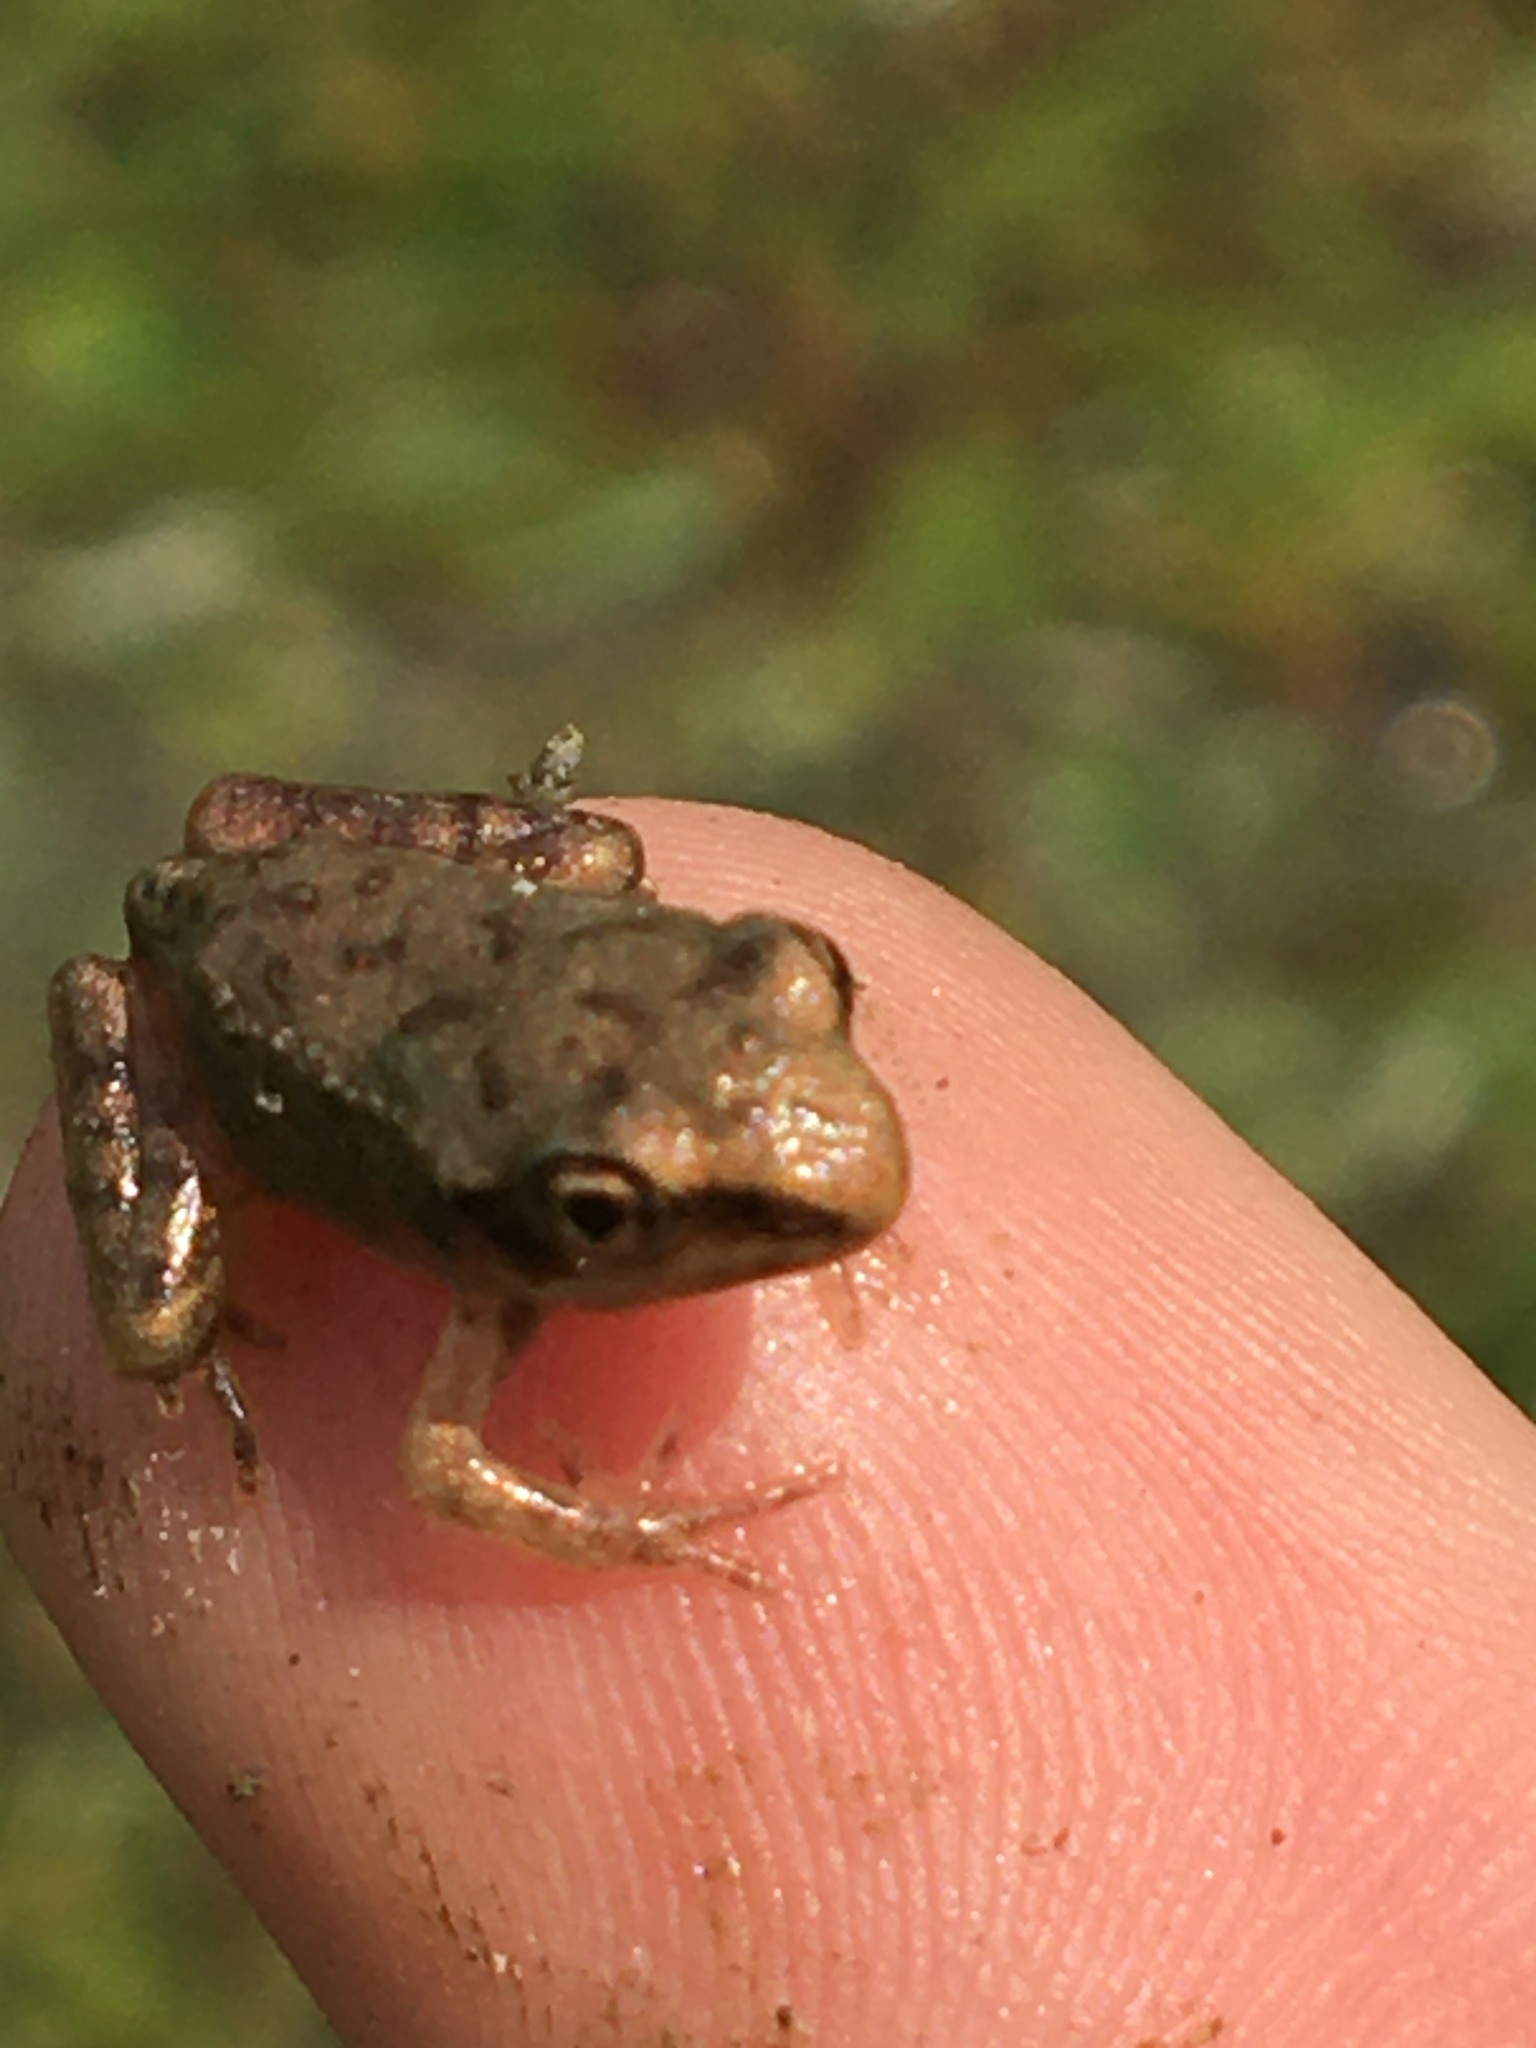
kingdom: Animalia
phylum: Chordata
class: Amphibia
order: Anura
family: Ranidae
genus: Lithobates
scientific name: Lithobates sylvaticus
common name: Wood frog
